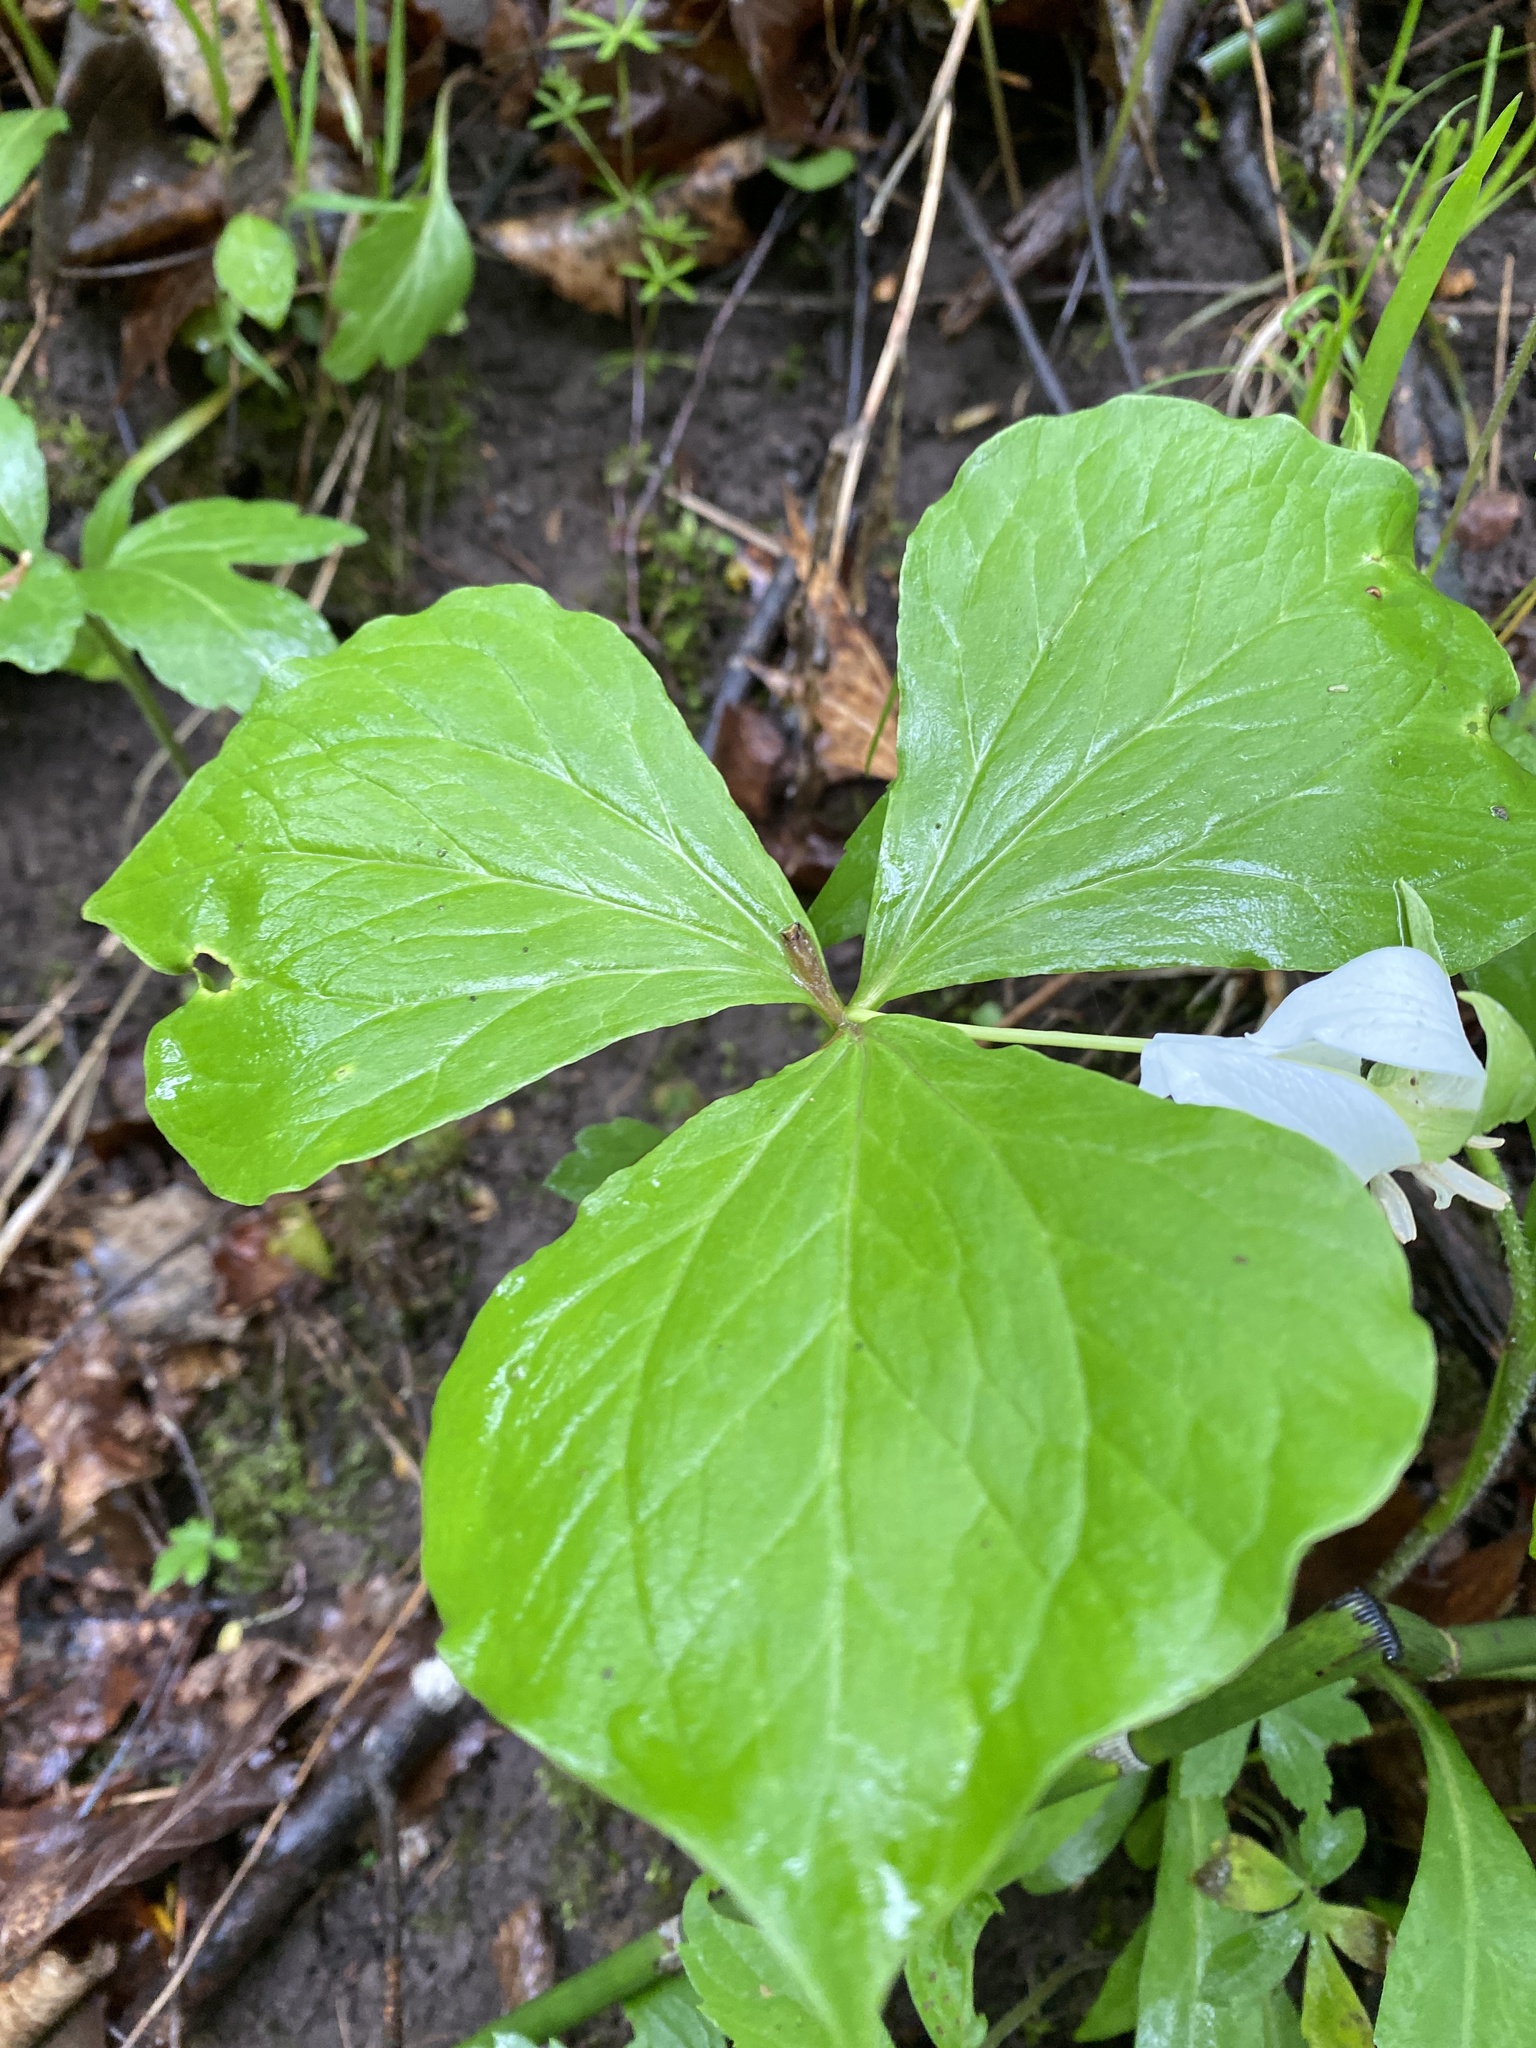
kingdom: Plantae
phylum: Tracheophyta
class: Liliopsida
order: Liliales
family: Melanthiaceae
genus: Trillium
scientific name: Trillium flexipes
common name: Drooping trillium
